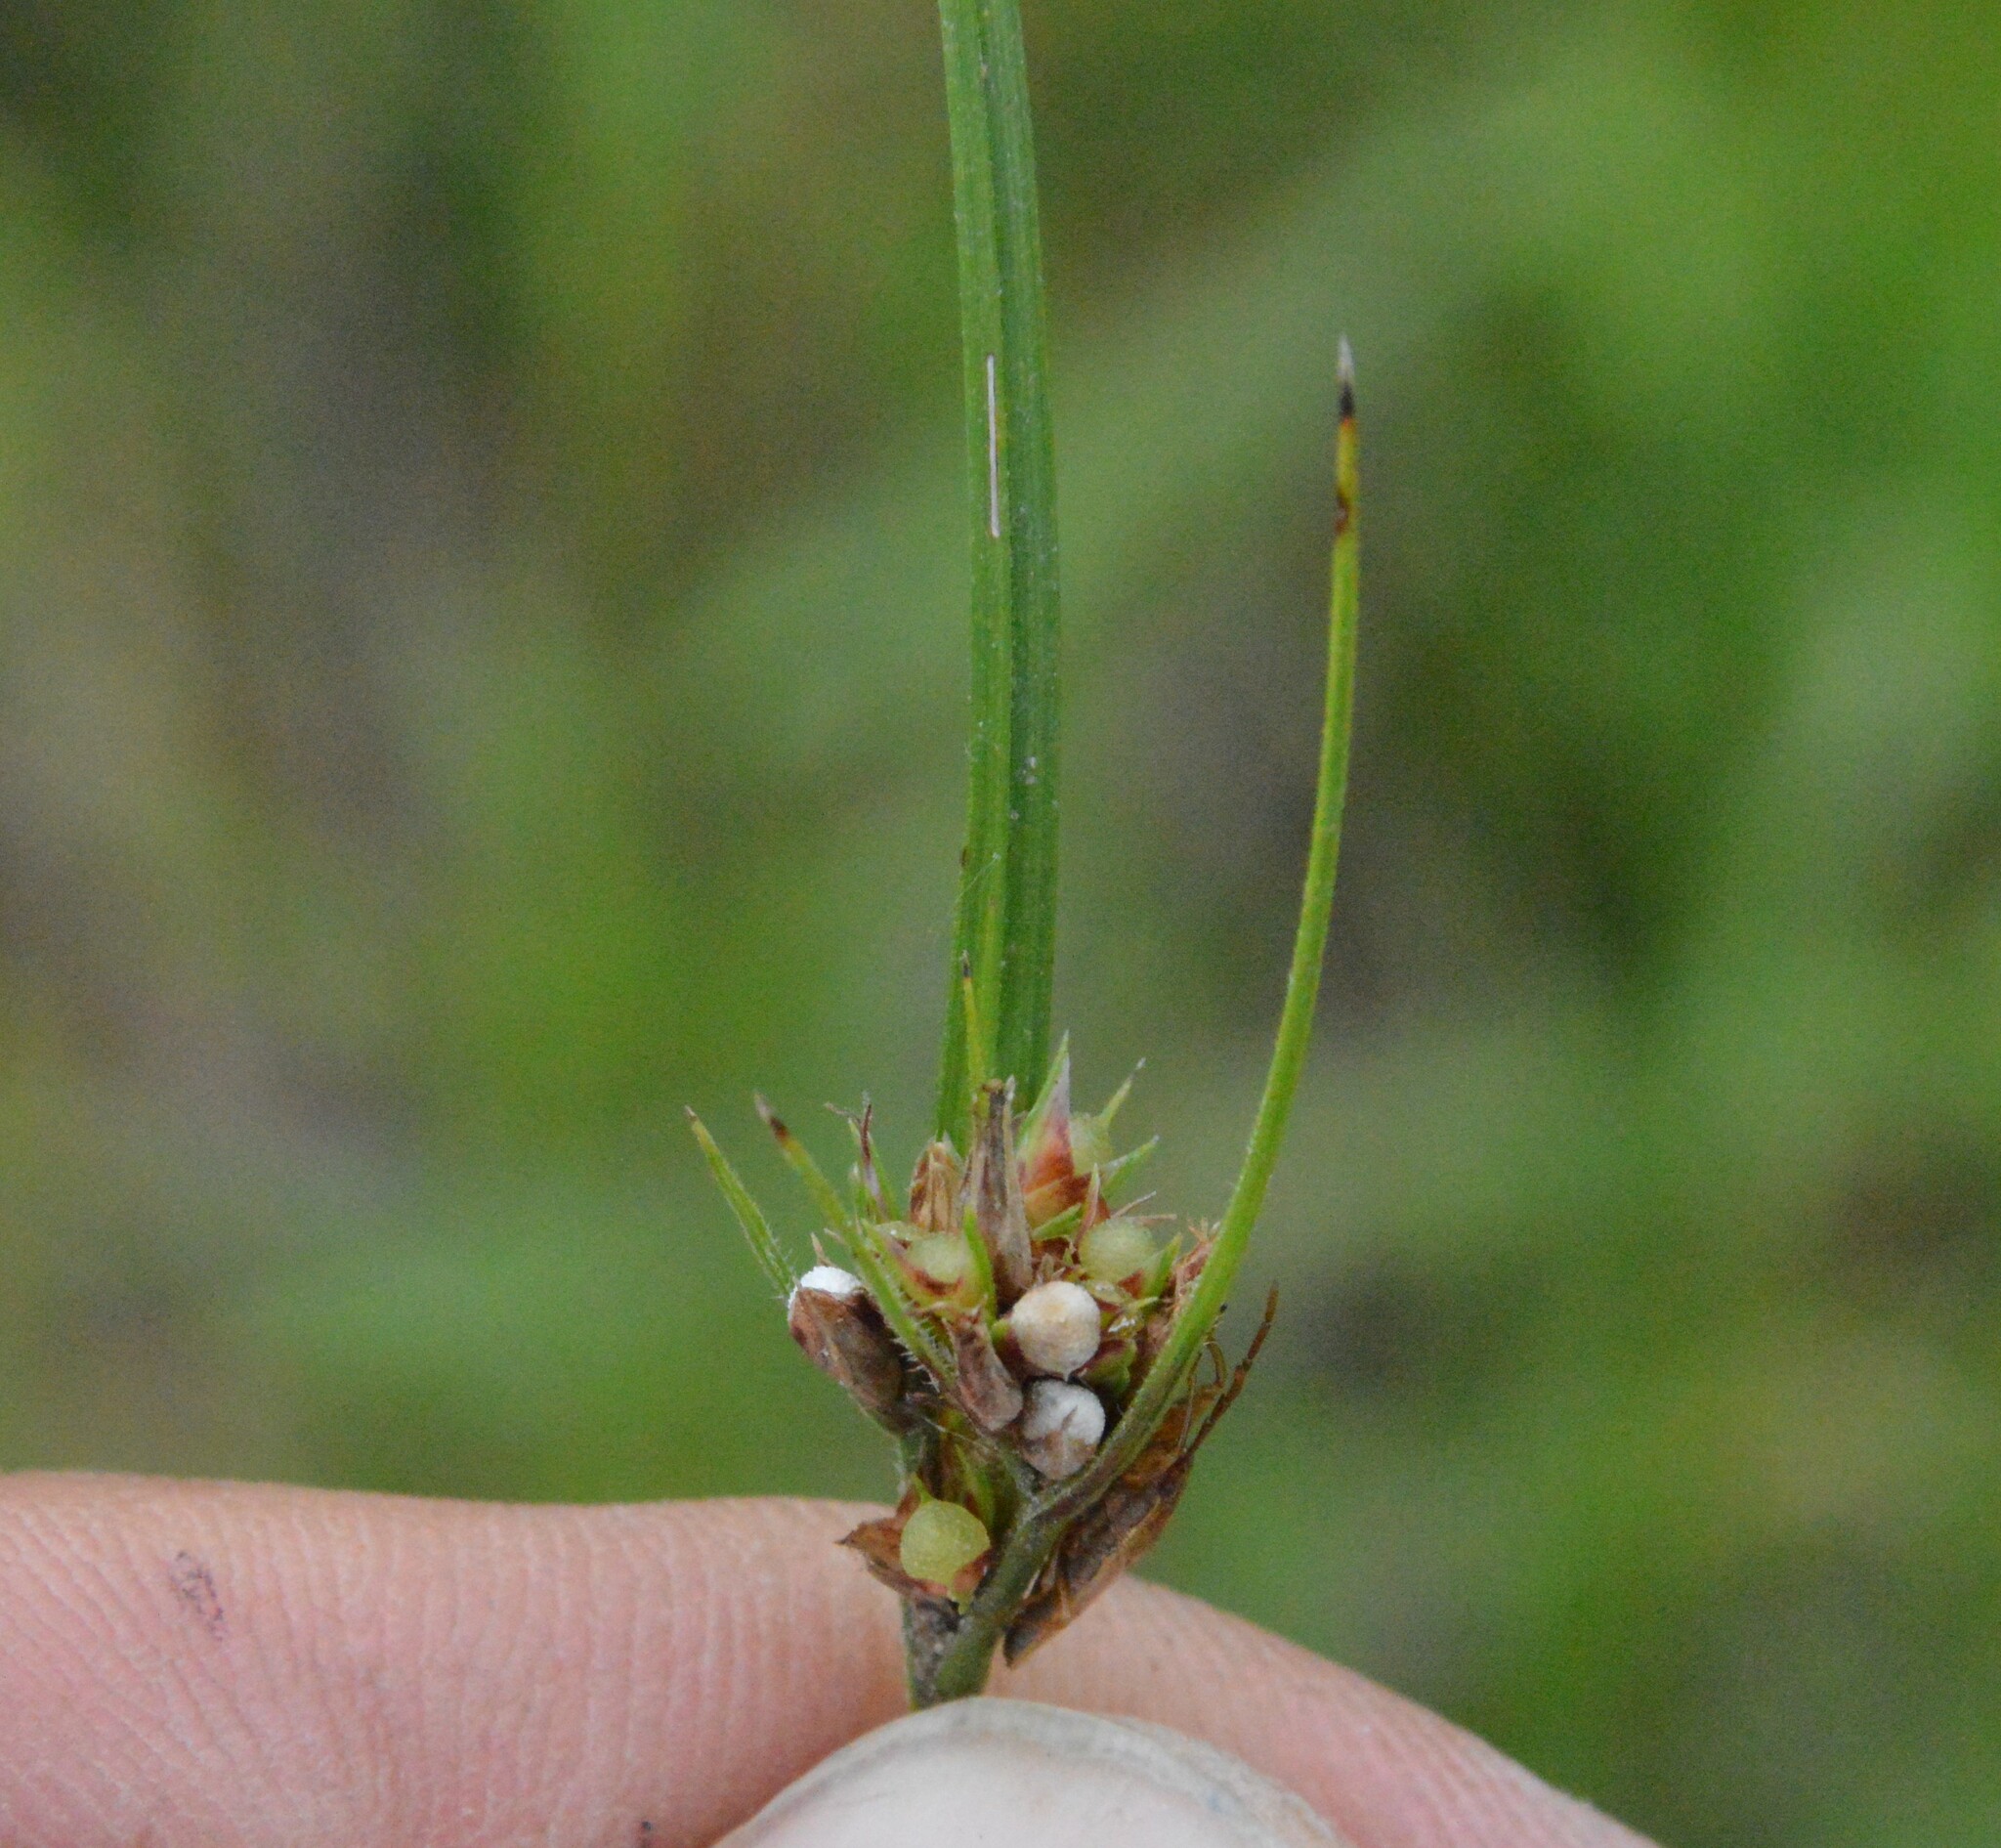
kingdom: Plantae
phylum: Tracheophyta
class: Liliopsida
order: Poales
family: Cyperaceae
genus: Scleria
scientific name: Scleria pauciflora
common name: Few-flowered nutrush
